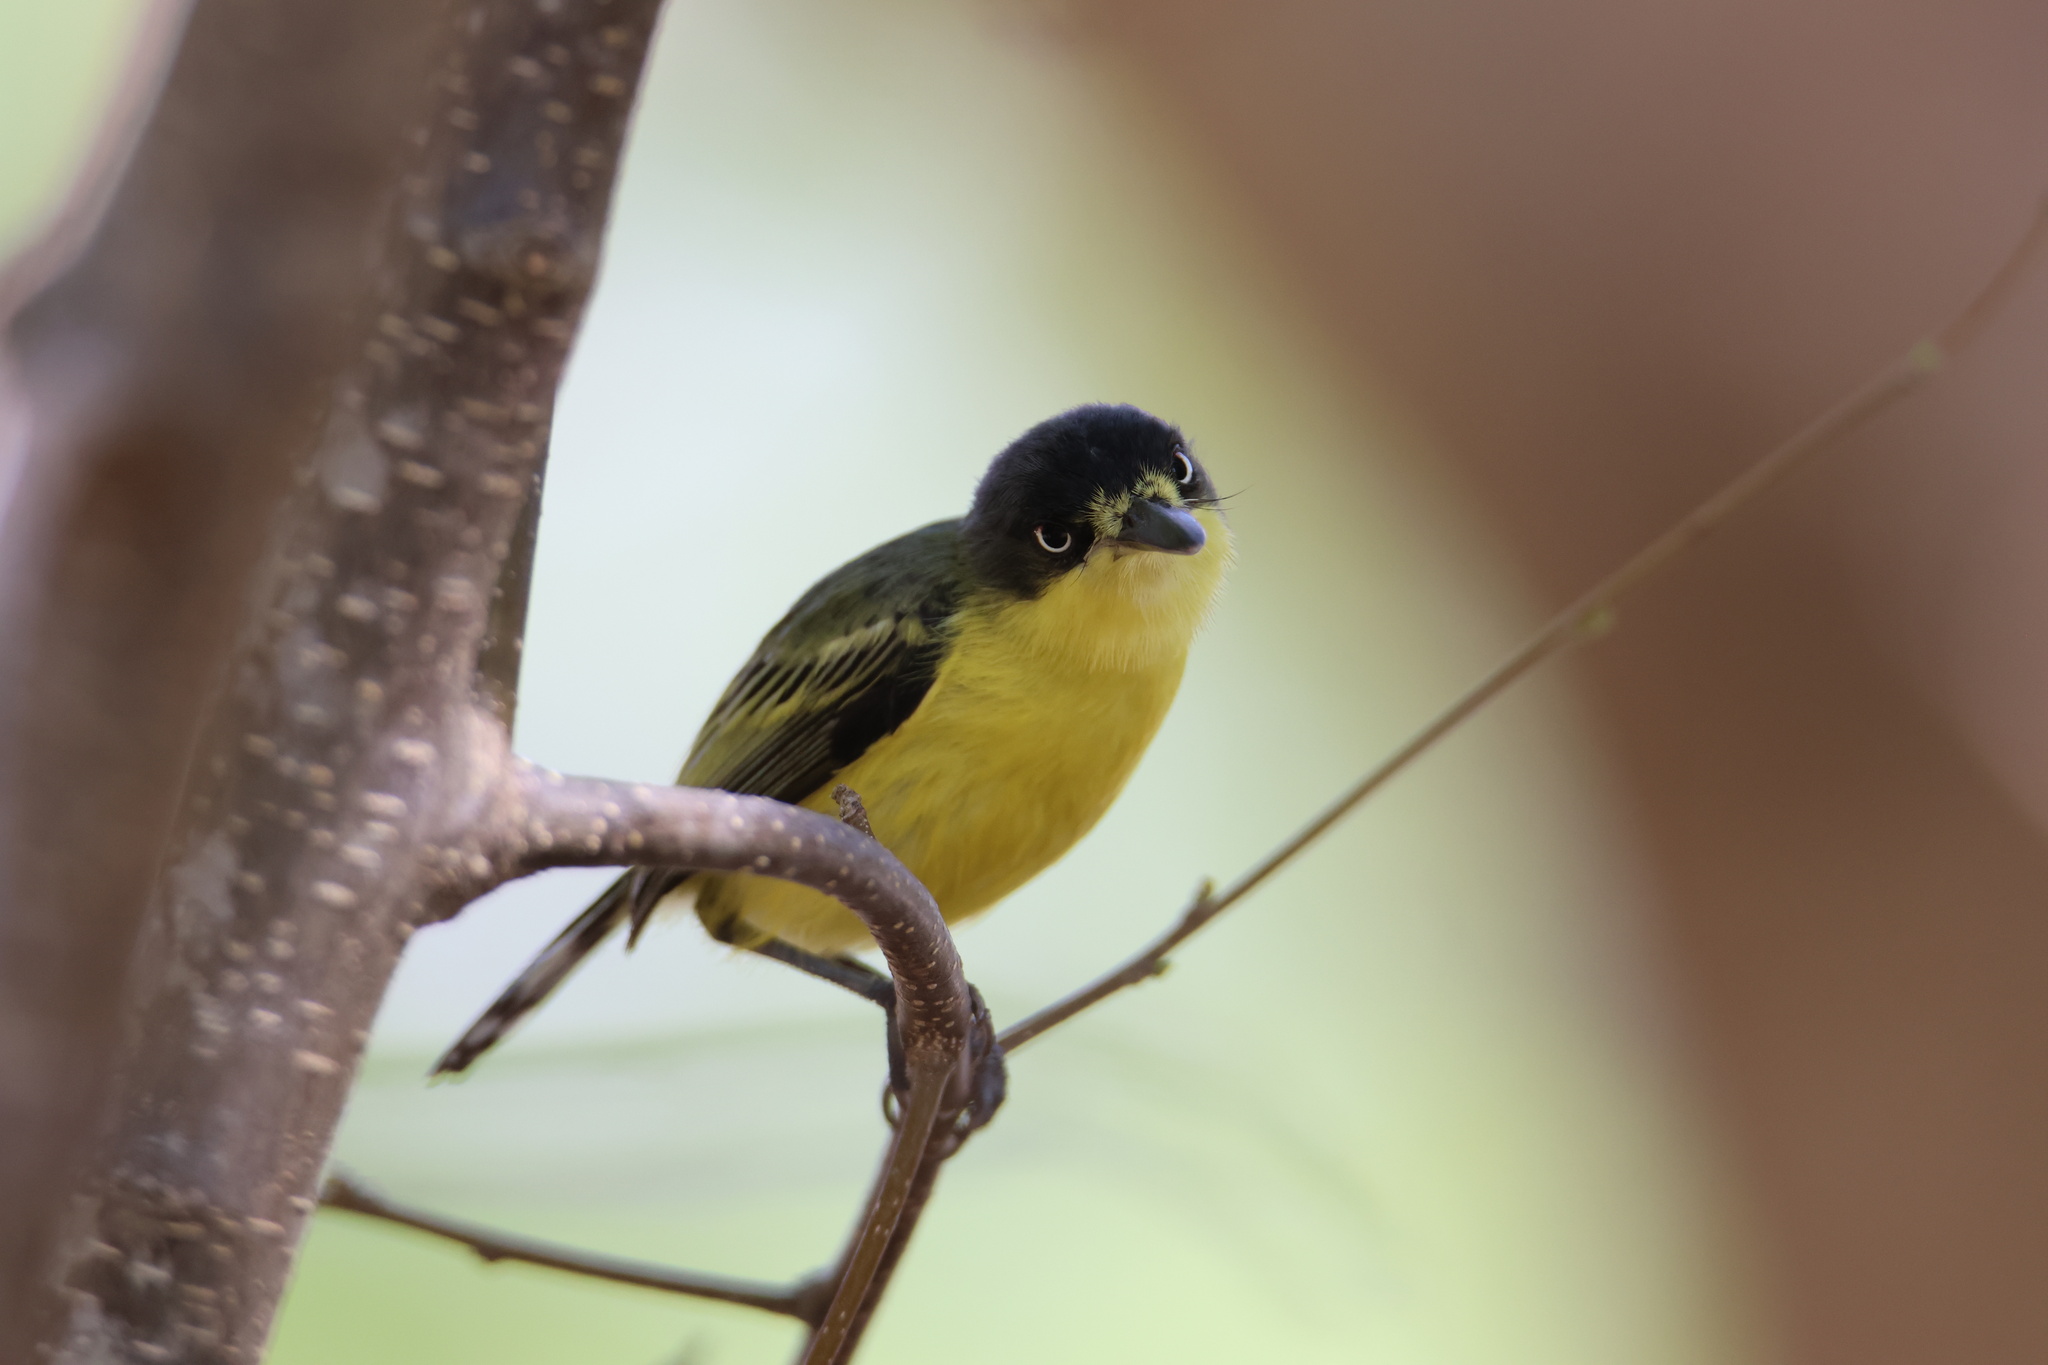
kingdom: Animalia
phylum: Chordata
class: Aves
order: Passeriformes
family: Tyrannidae
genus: Todirostrum
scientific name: Todirostrum cinereum
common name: Common tody-flycatcher
